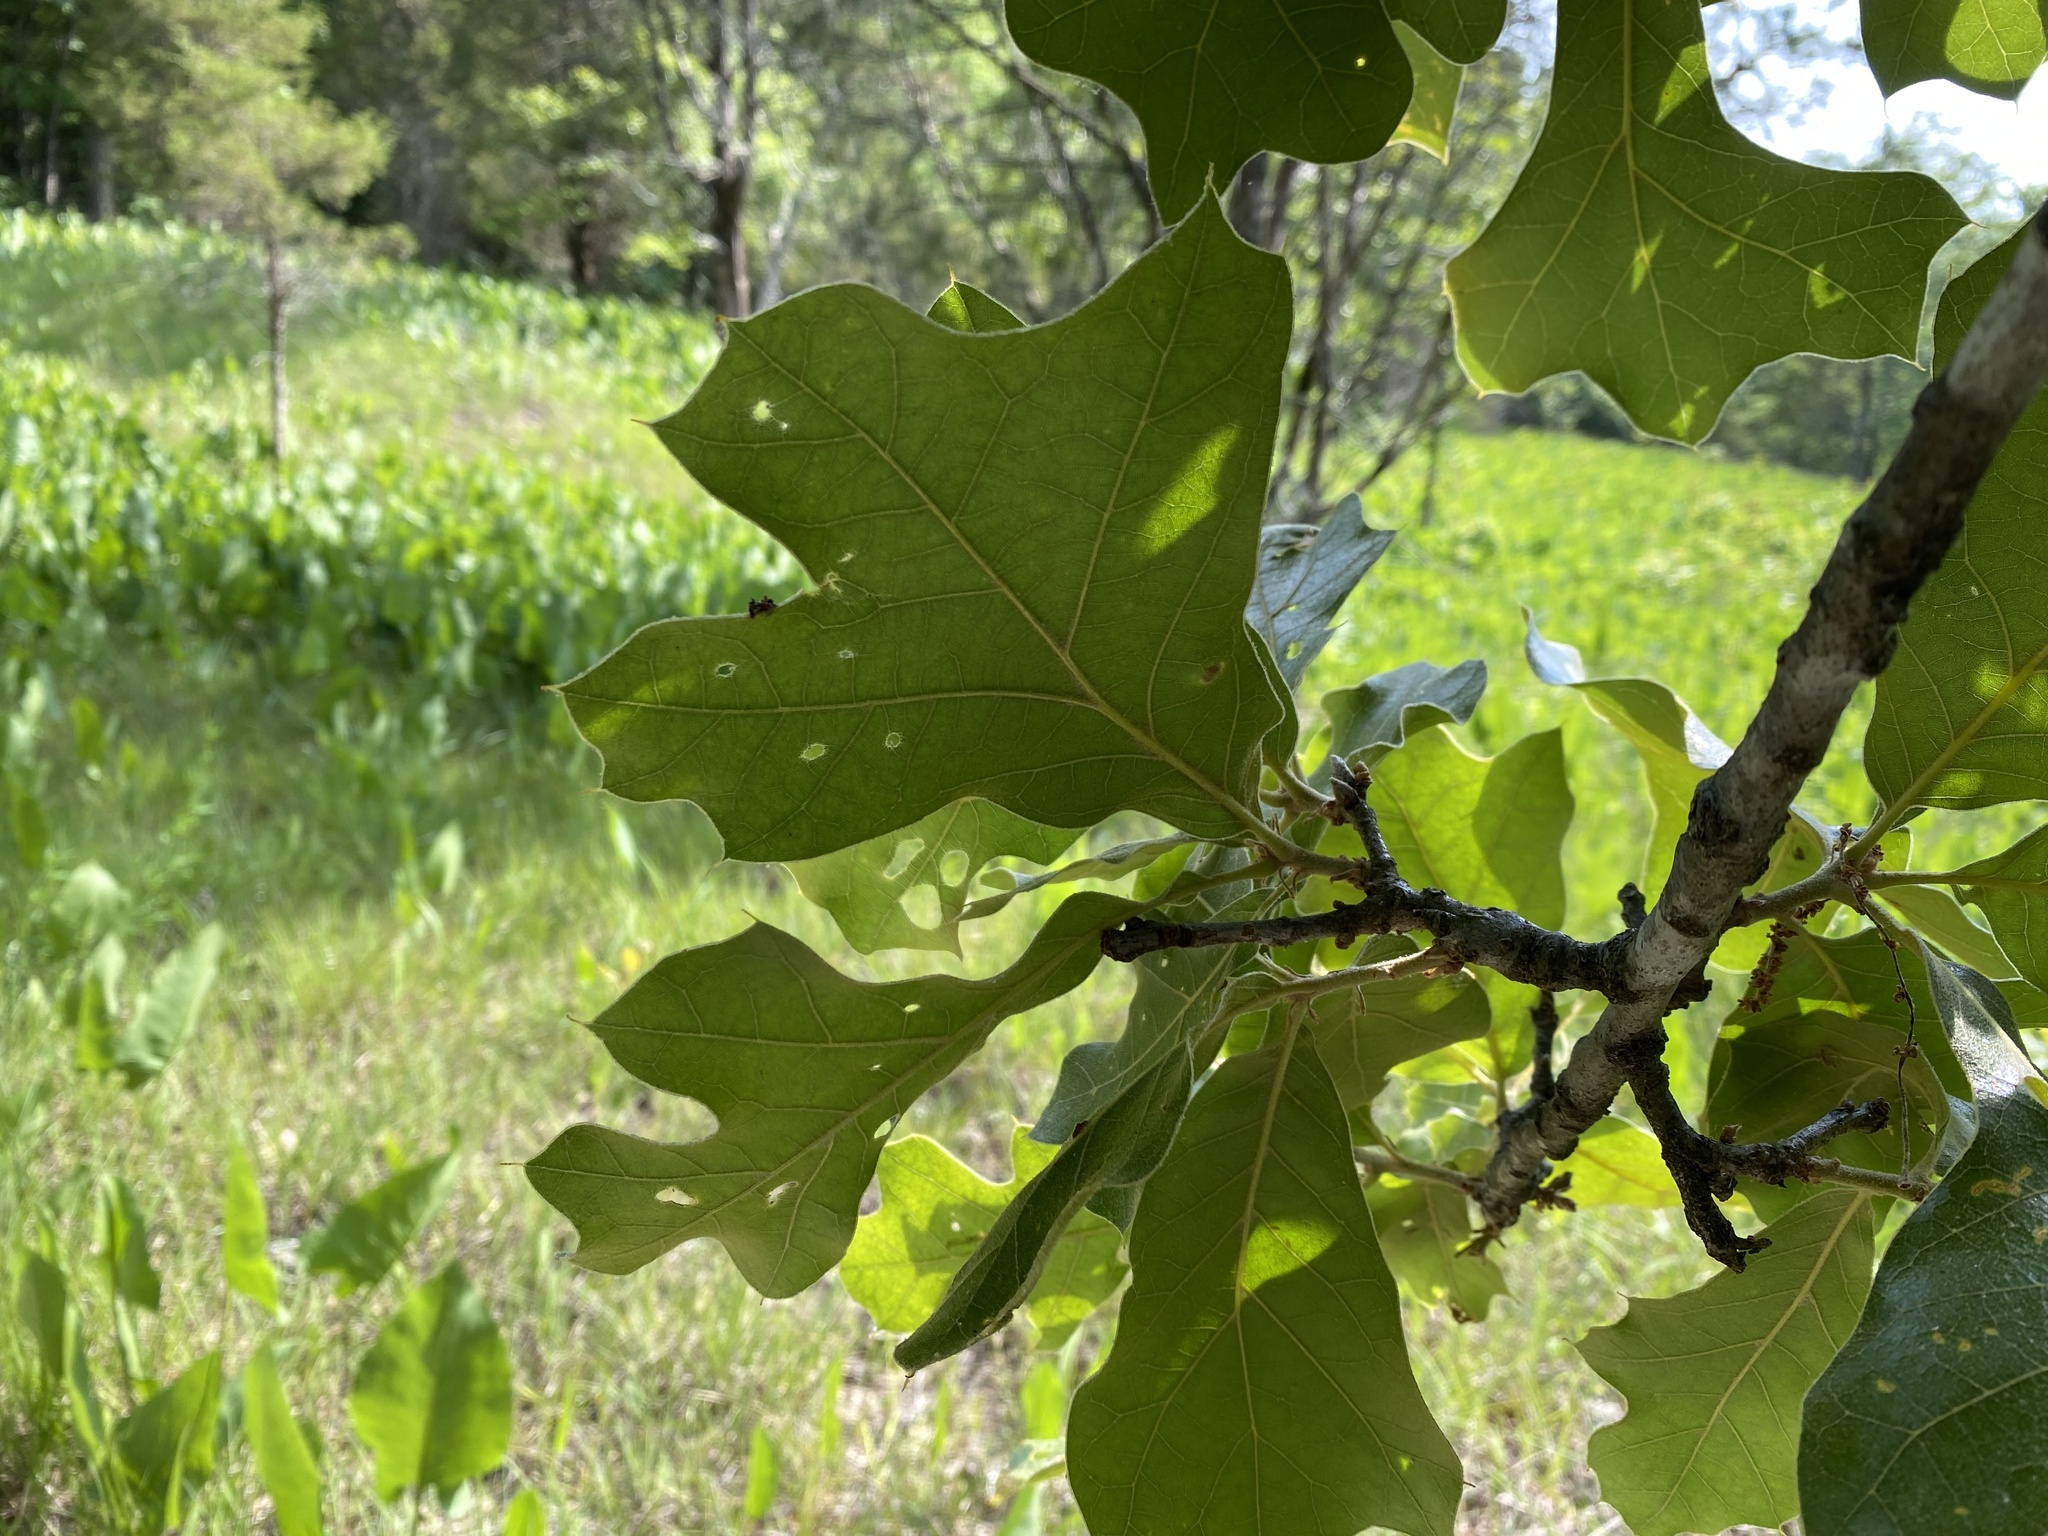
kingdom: Plantae
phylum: Tracheophyta
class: Magnoliopsida
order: Fagales
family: Fagaceae
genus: Quercus
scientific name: Quercus marilandica
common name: Blackjack oak
